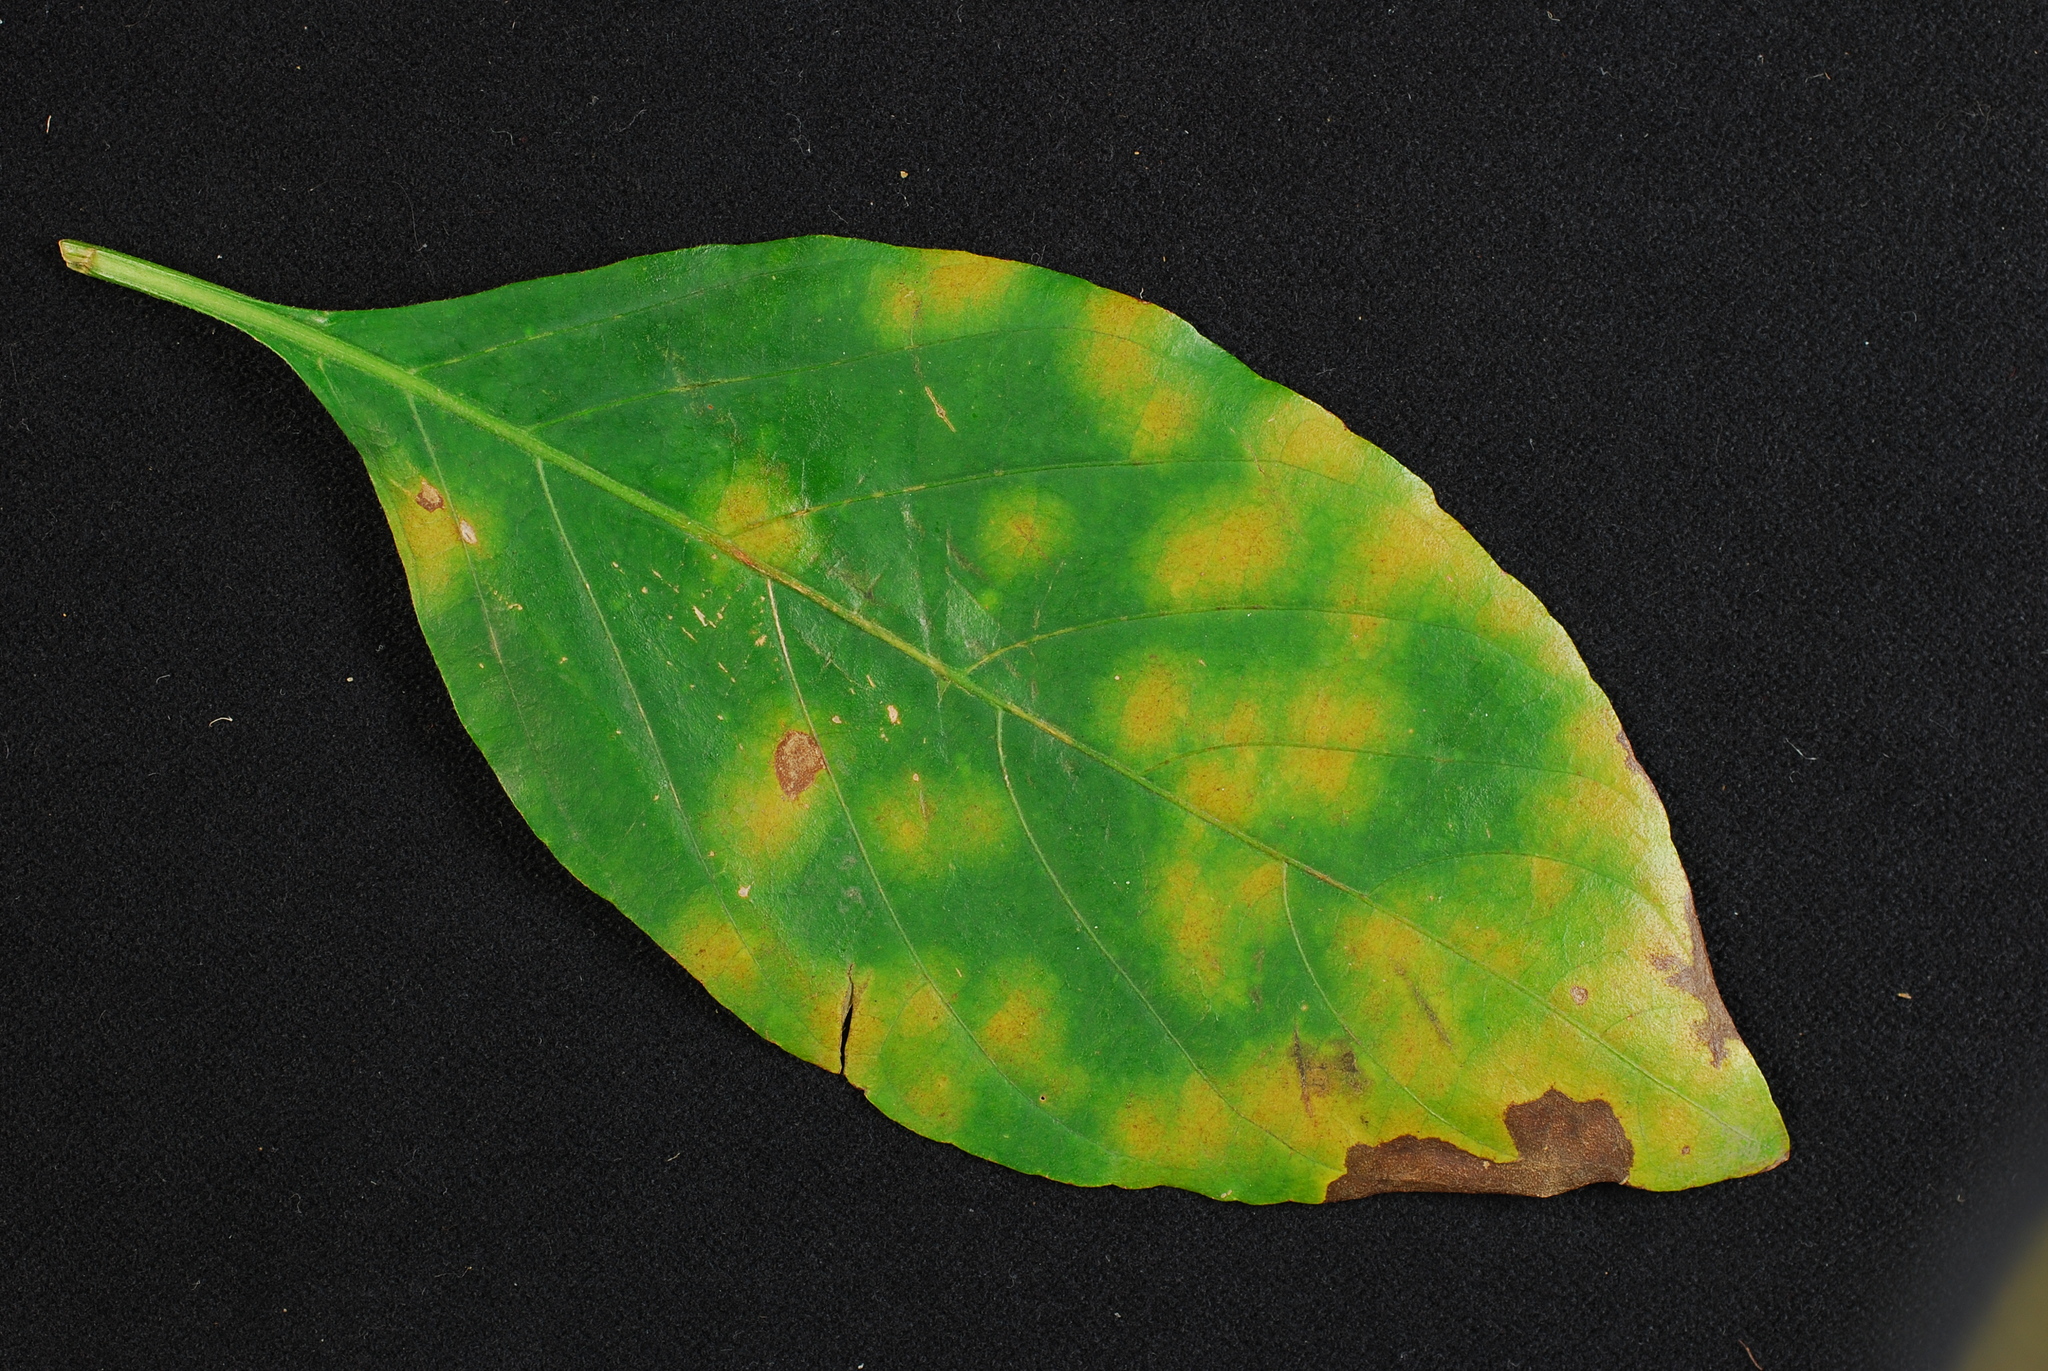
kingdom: Fungi
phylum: Ascomycota
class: Dothideomycetes
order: Mycosphaerellales
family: Mycosphaerellaceae
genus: Pseudocercospora
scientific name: Pseudocercospora rhinacanthi
